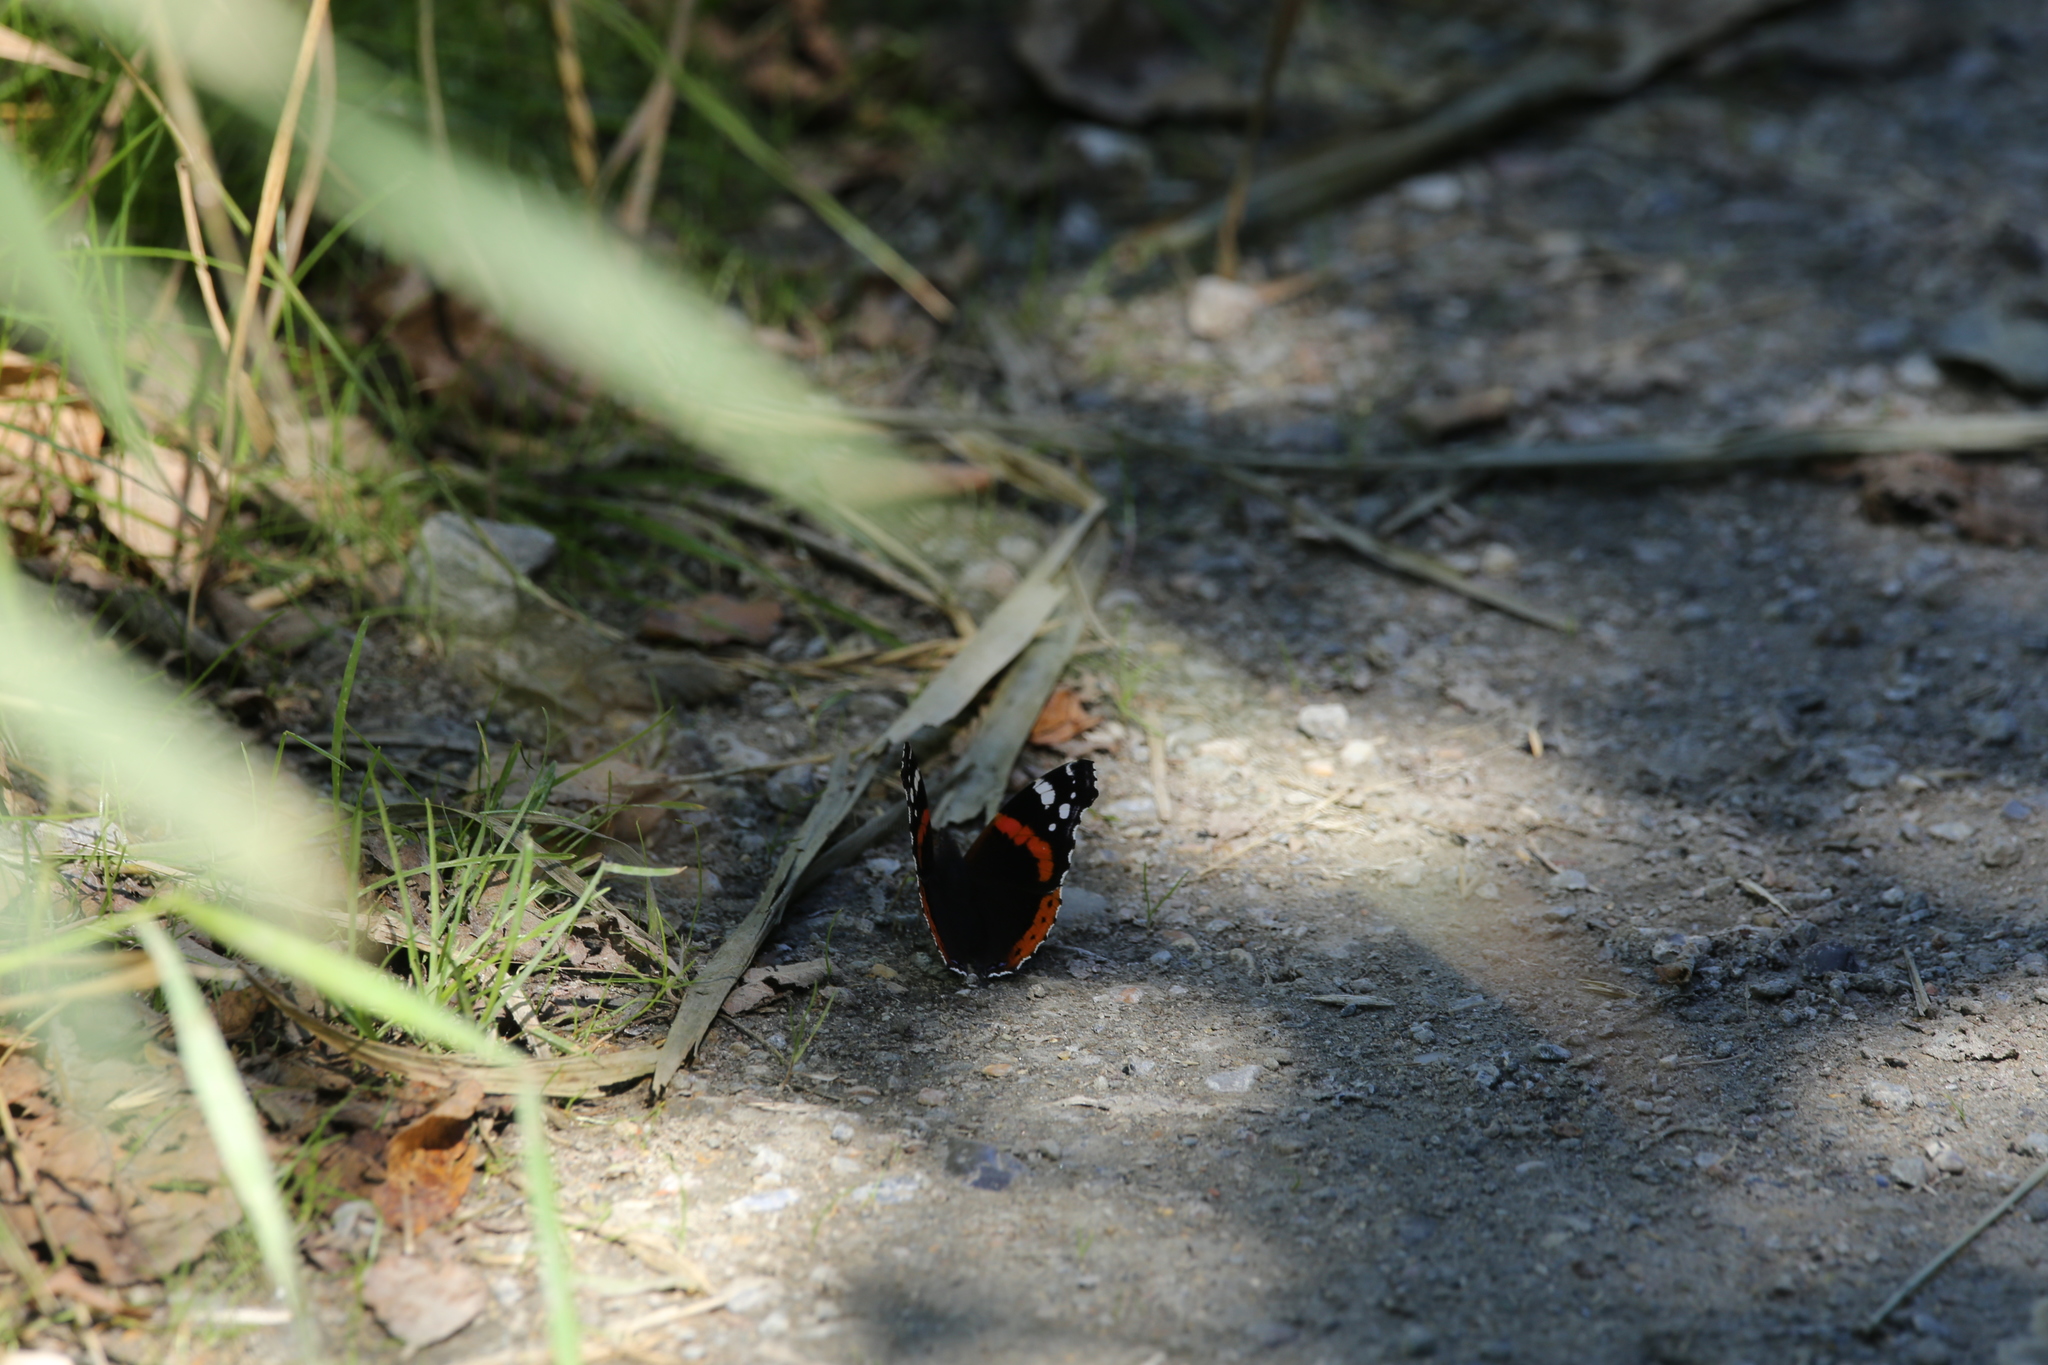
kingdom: Animalia
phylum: Arthropoda
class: Insecta
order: Lepidoptera
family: Nymphalidae
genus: Vanessa
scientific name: Vanessa atalanta
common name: Red admiral
